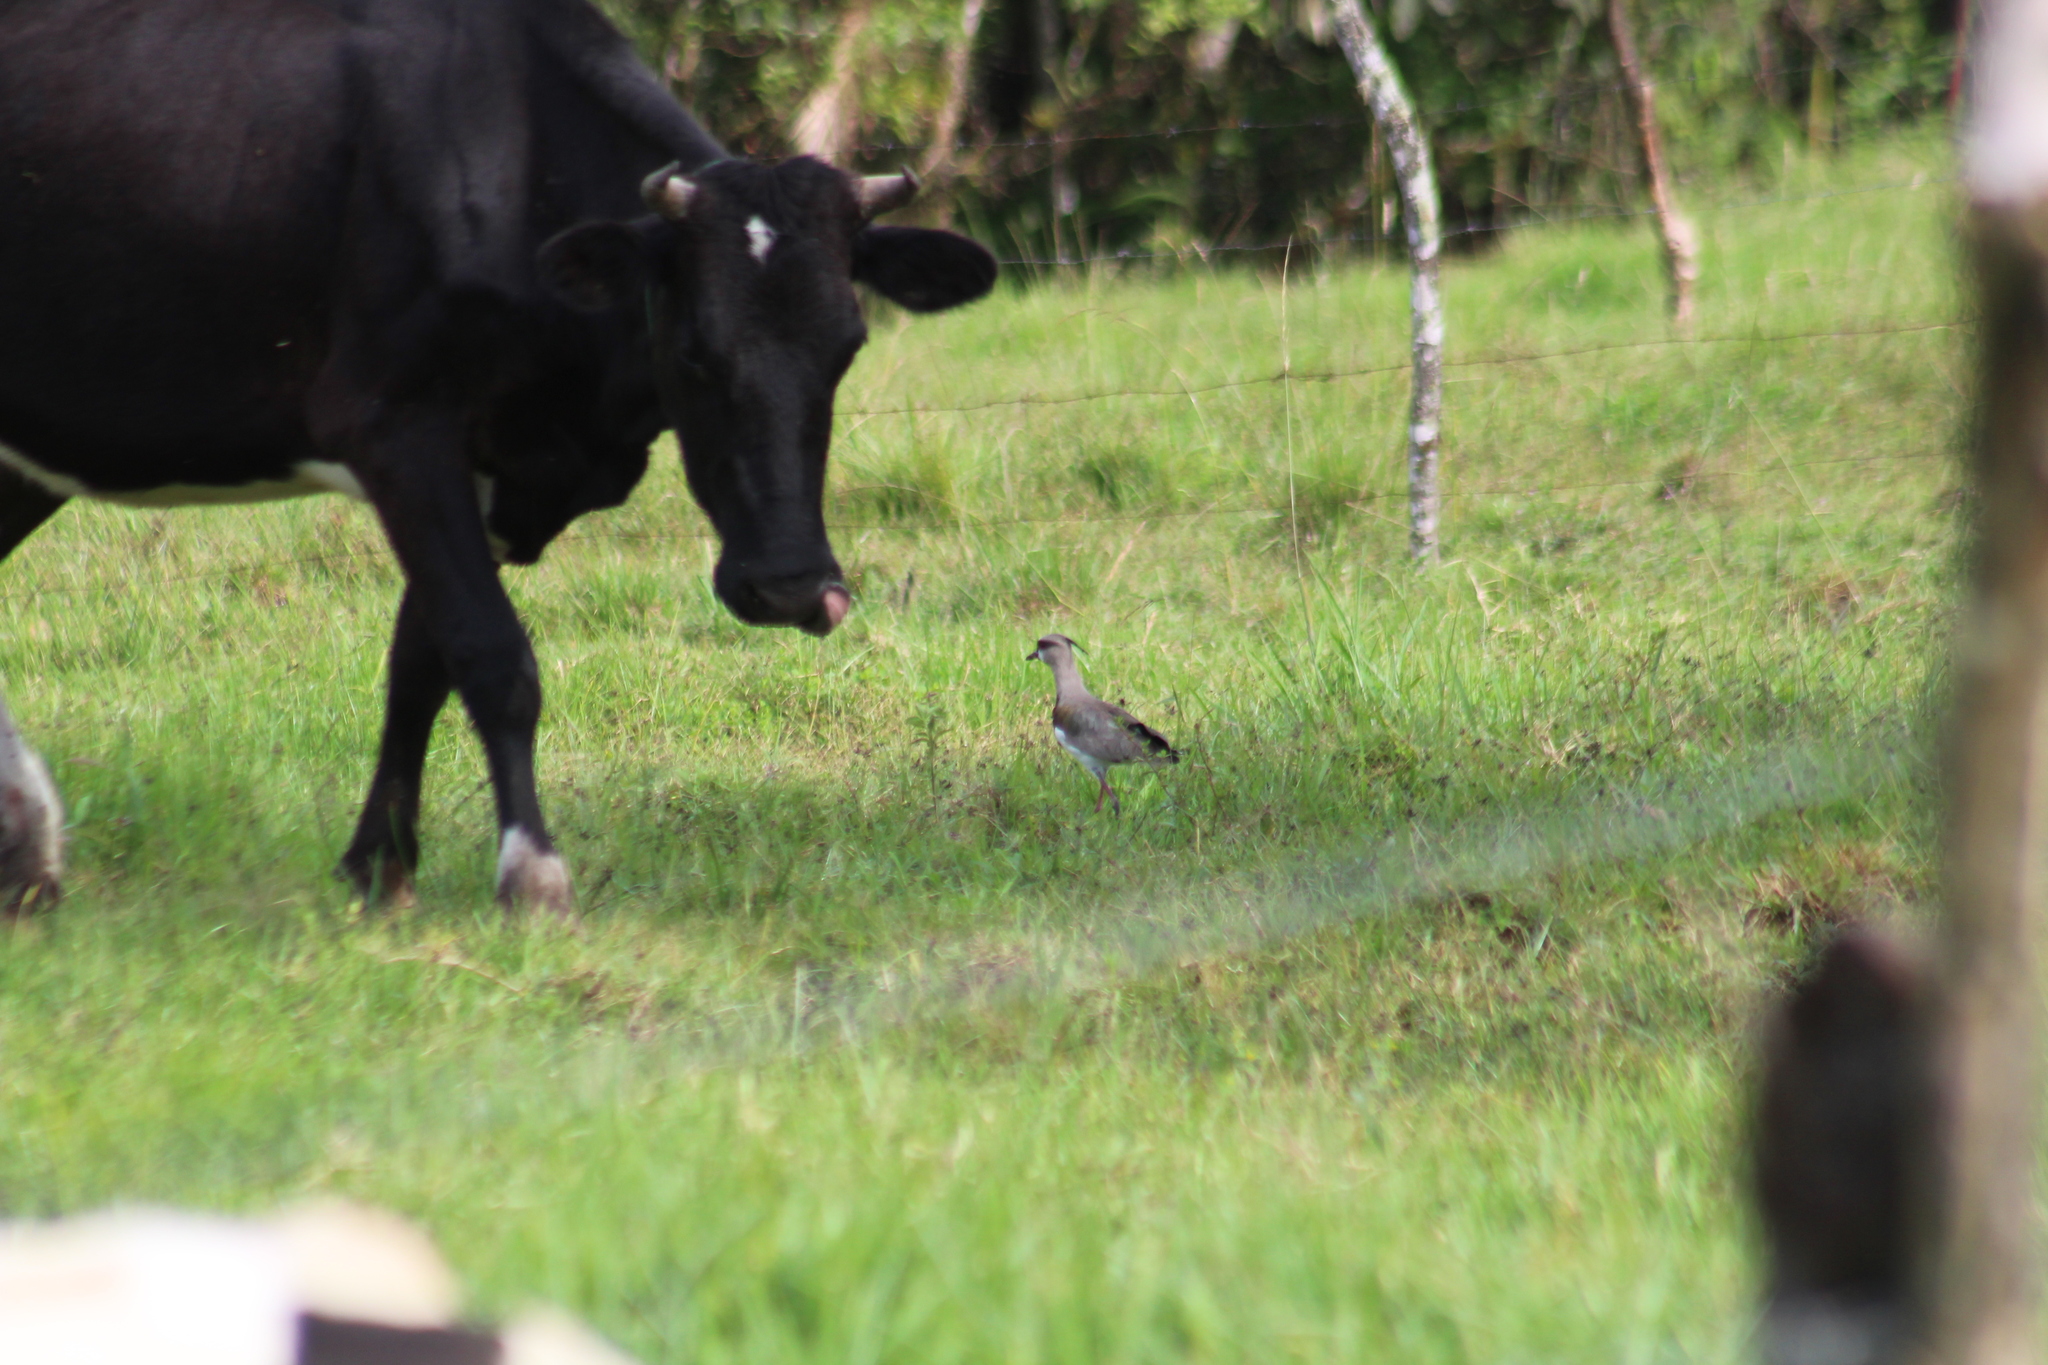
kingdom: Animalia
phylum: Chordata
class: Aves
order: Charadriiformes
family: Charadriidae
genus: Vanellus
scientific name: Vanellus chilensis
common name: Southern lapwing
